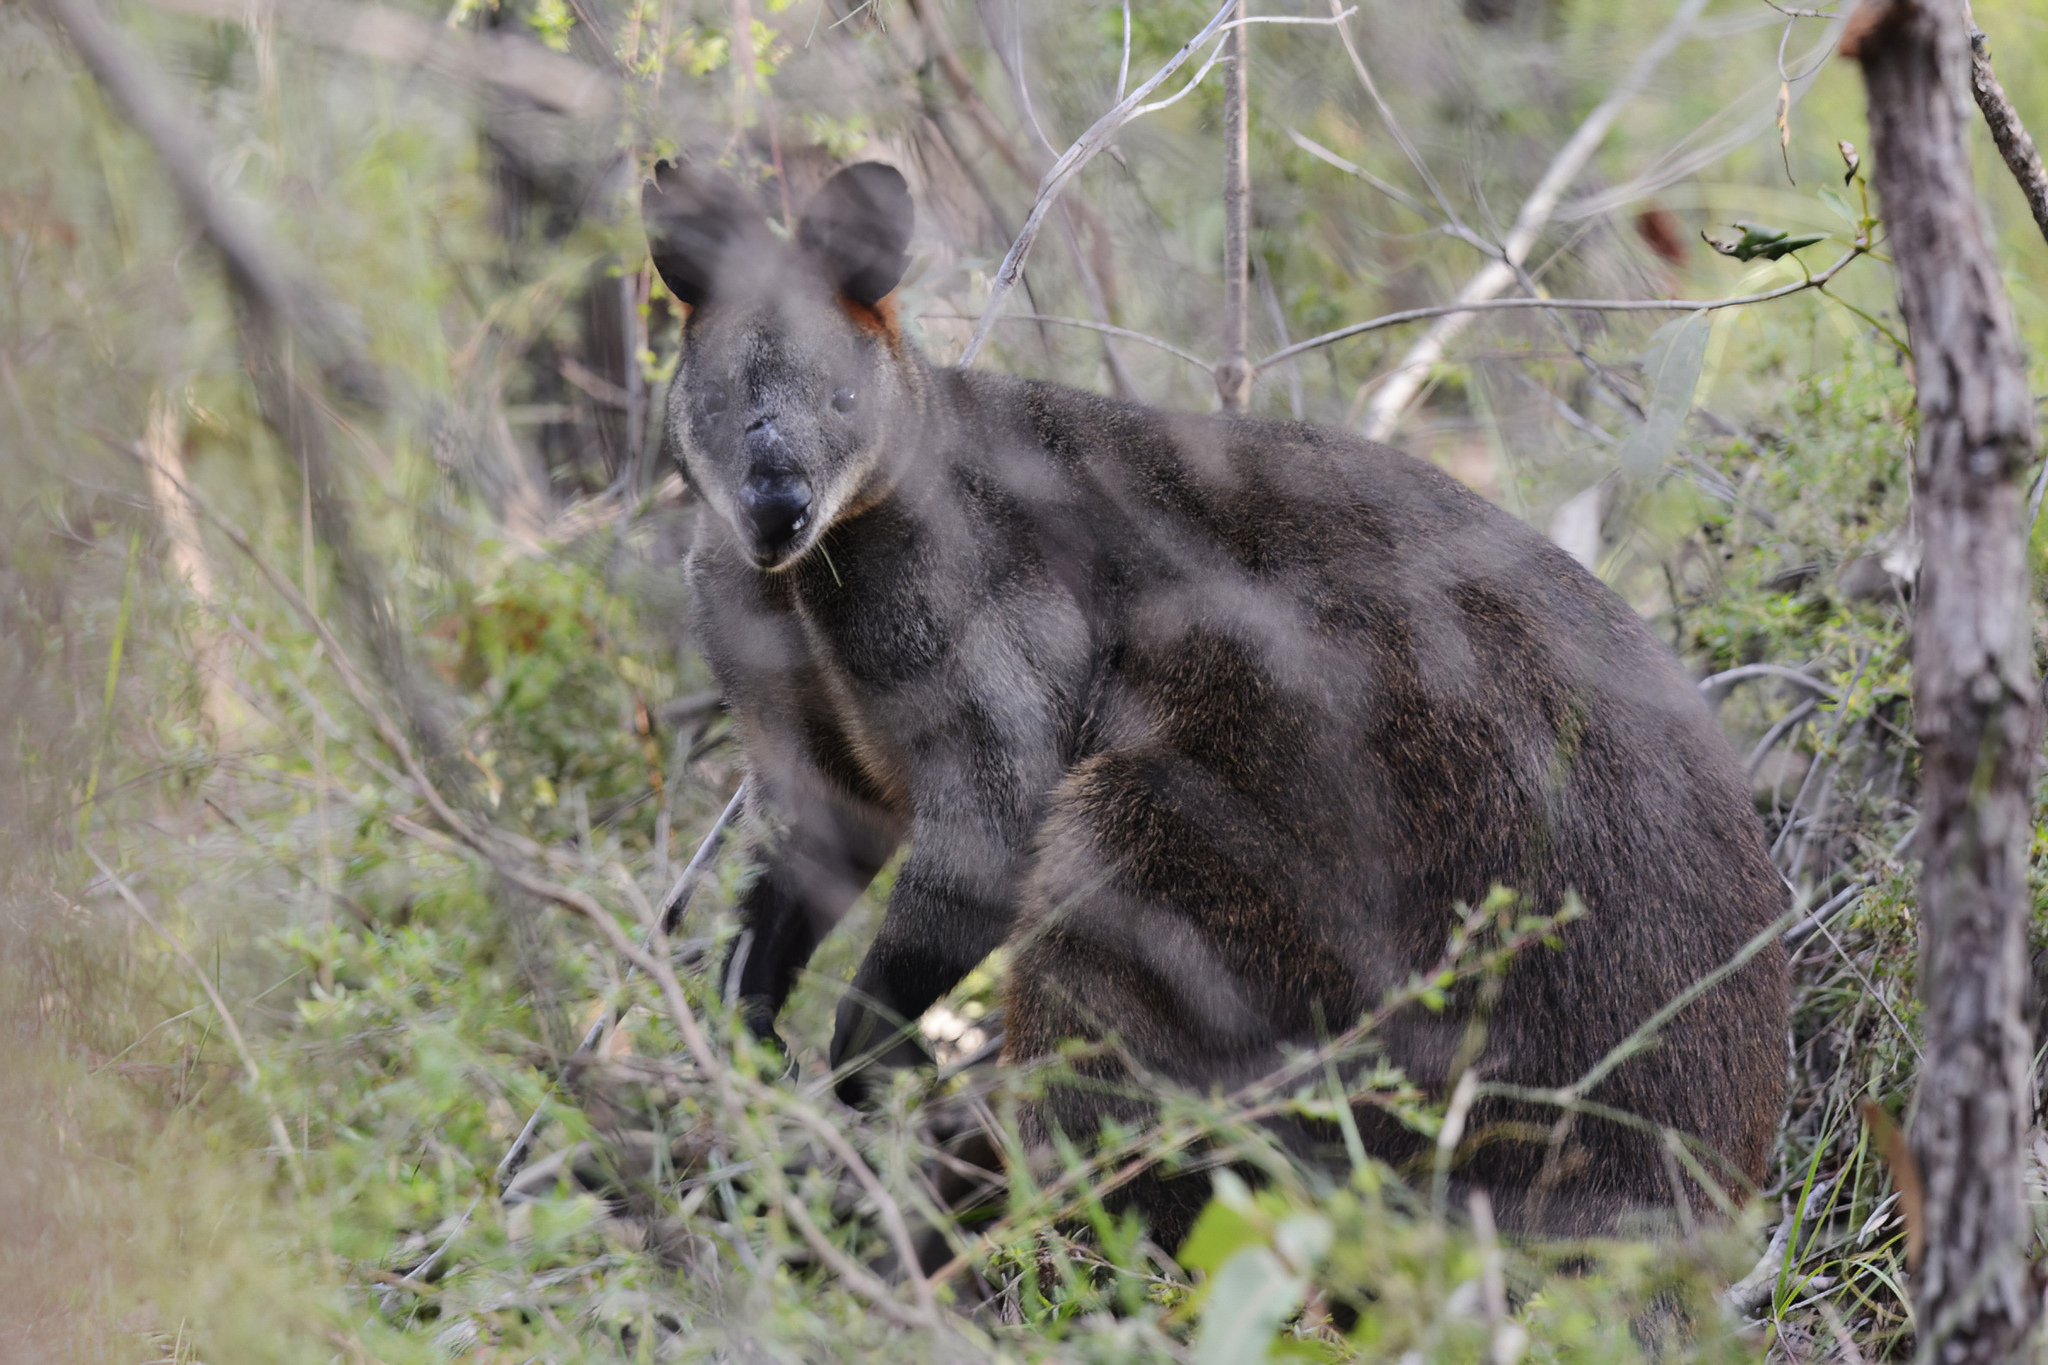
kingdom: Animalia
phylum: Chordata
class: Mammalia
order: Diprotodontia
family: Macropodidae
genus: Wallabia
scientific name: Wallabia bicolor
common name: Swamp wallaby
